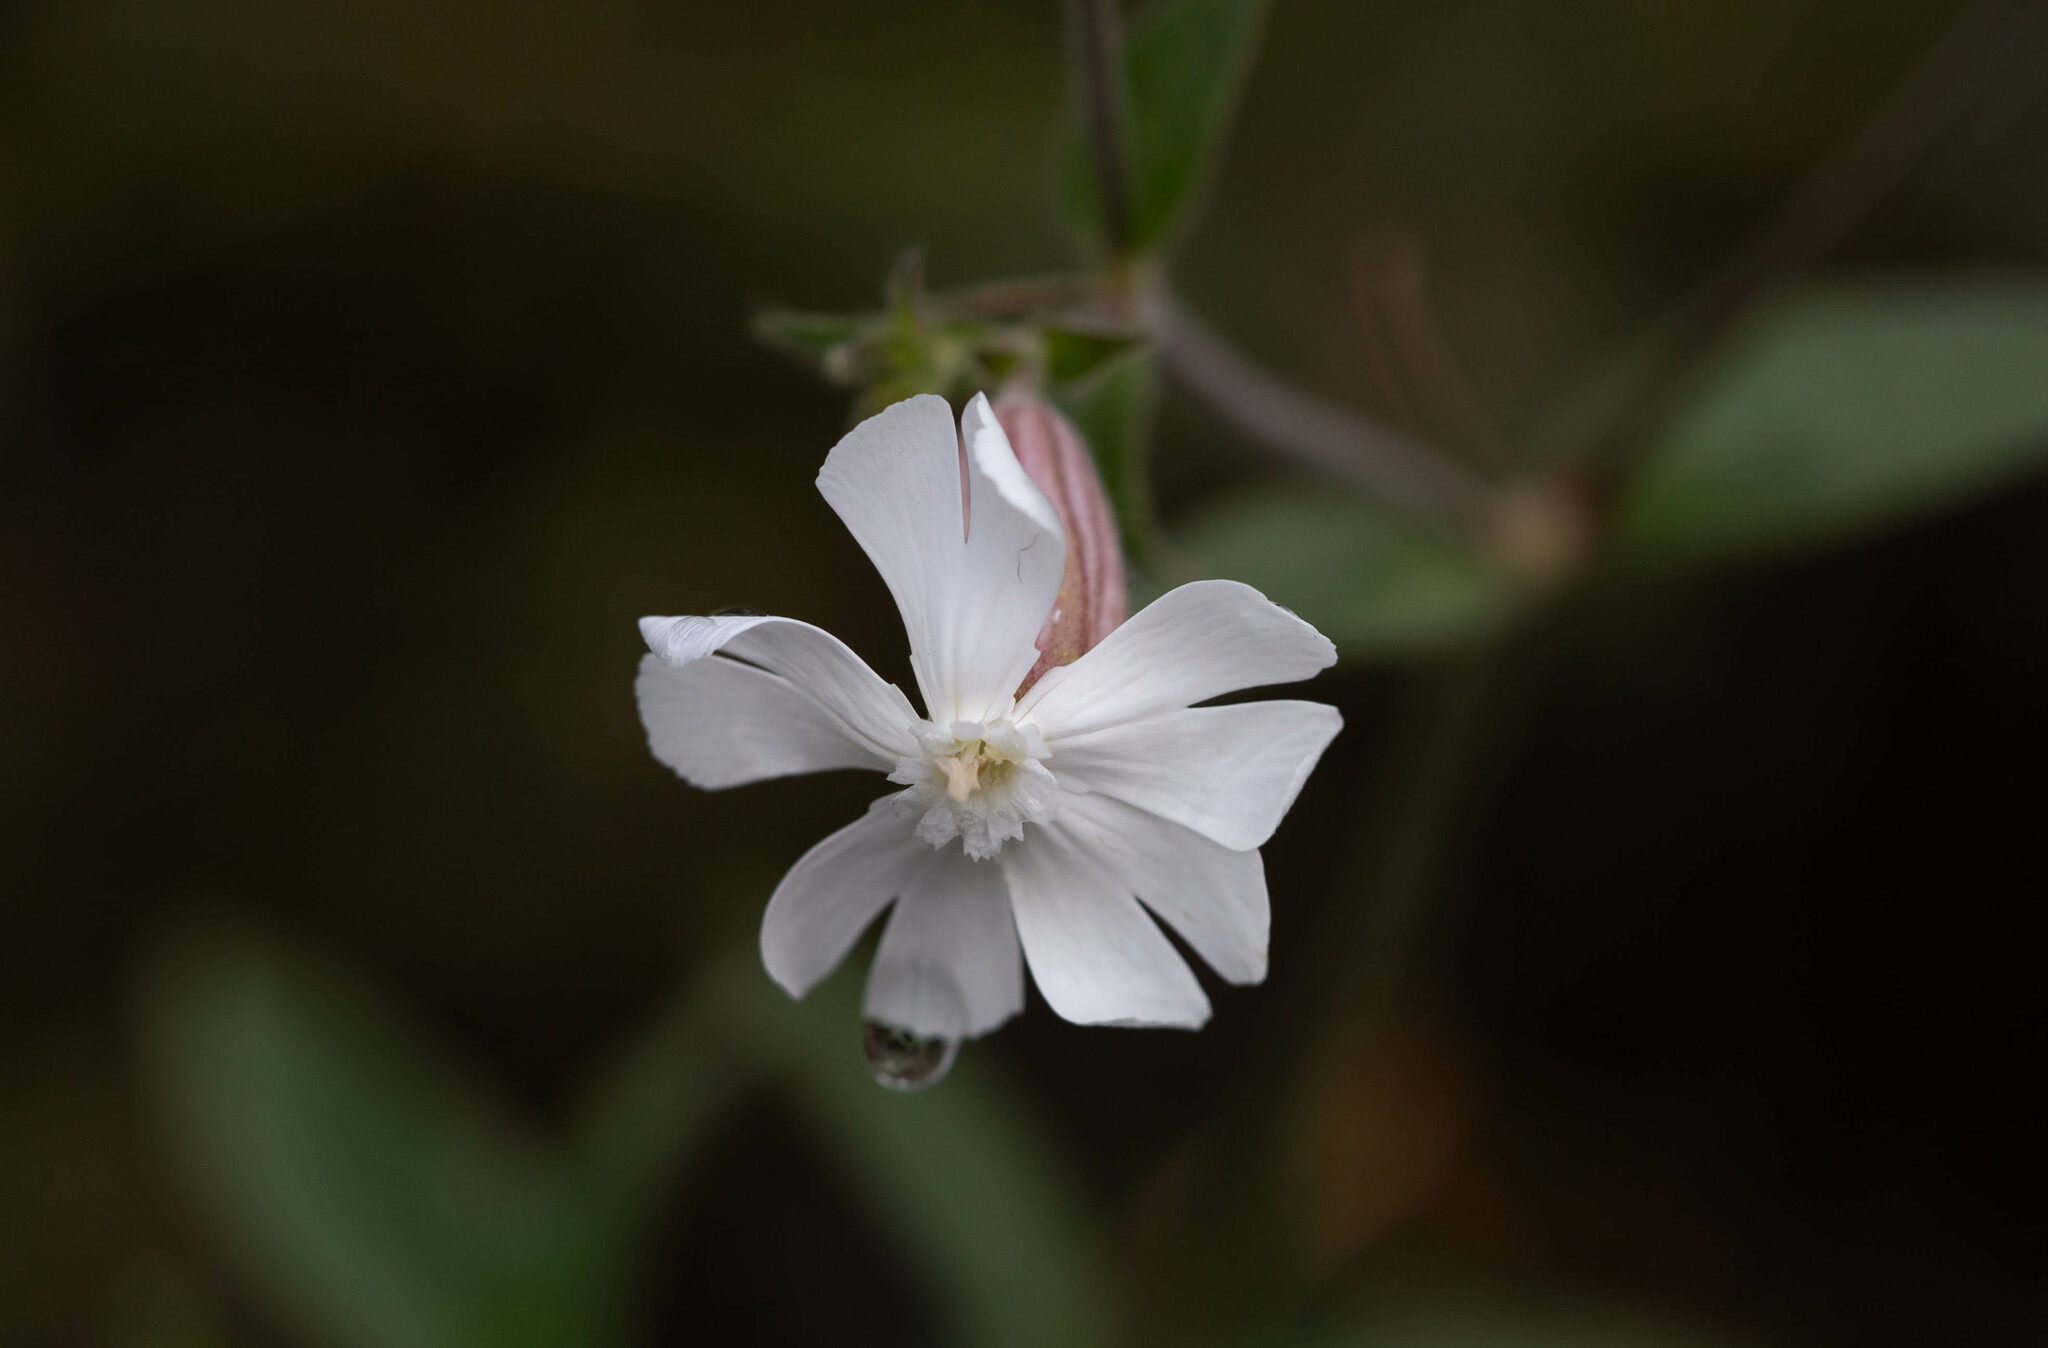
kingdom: Plantae
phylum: Tracheophyta
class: Magnoliopsida
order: Caryophyllales
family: Caryophyllaceae
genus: Silene
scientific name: Silene latifolia
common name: White campion
